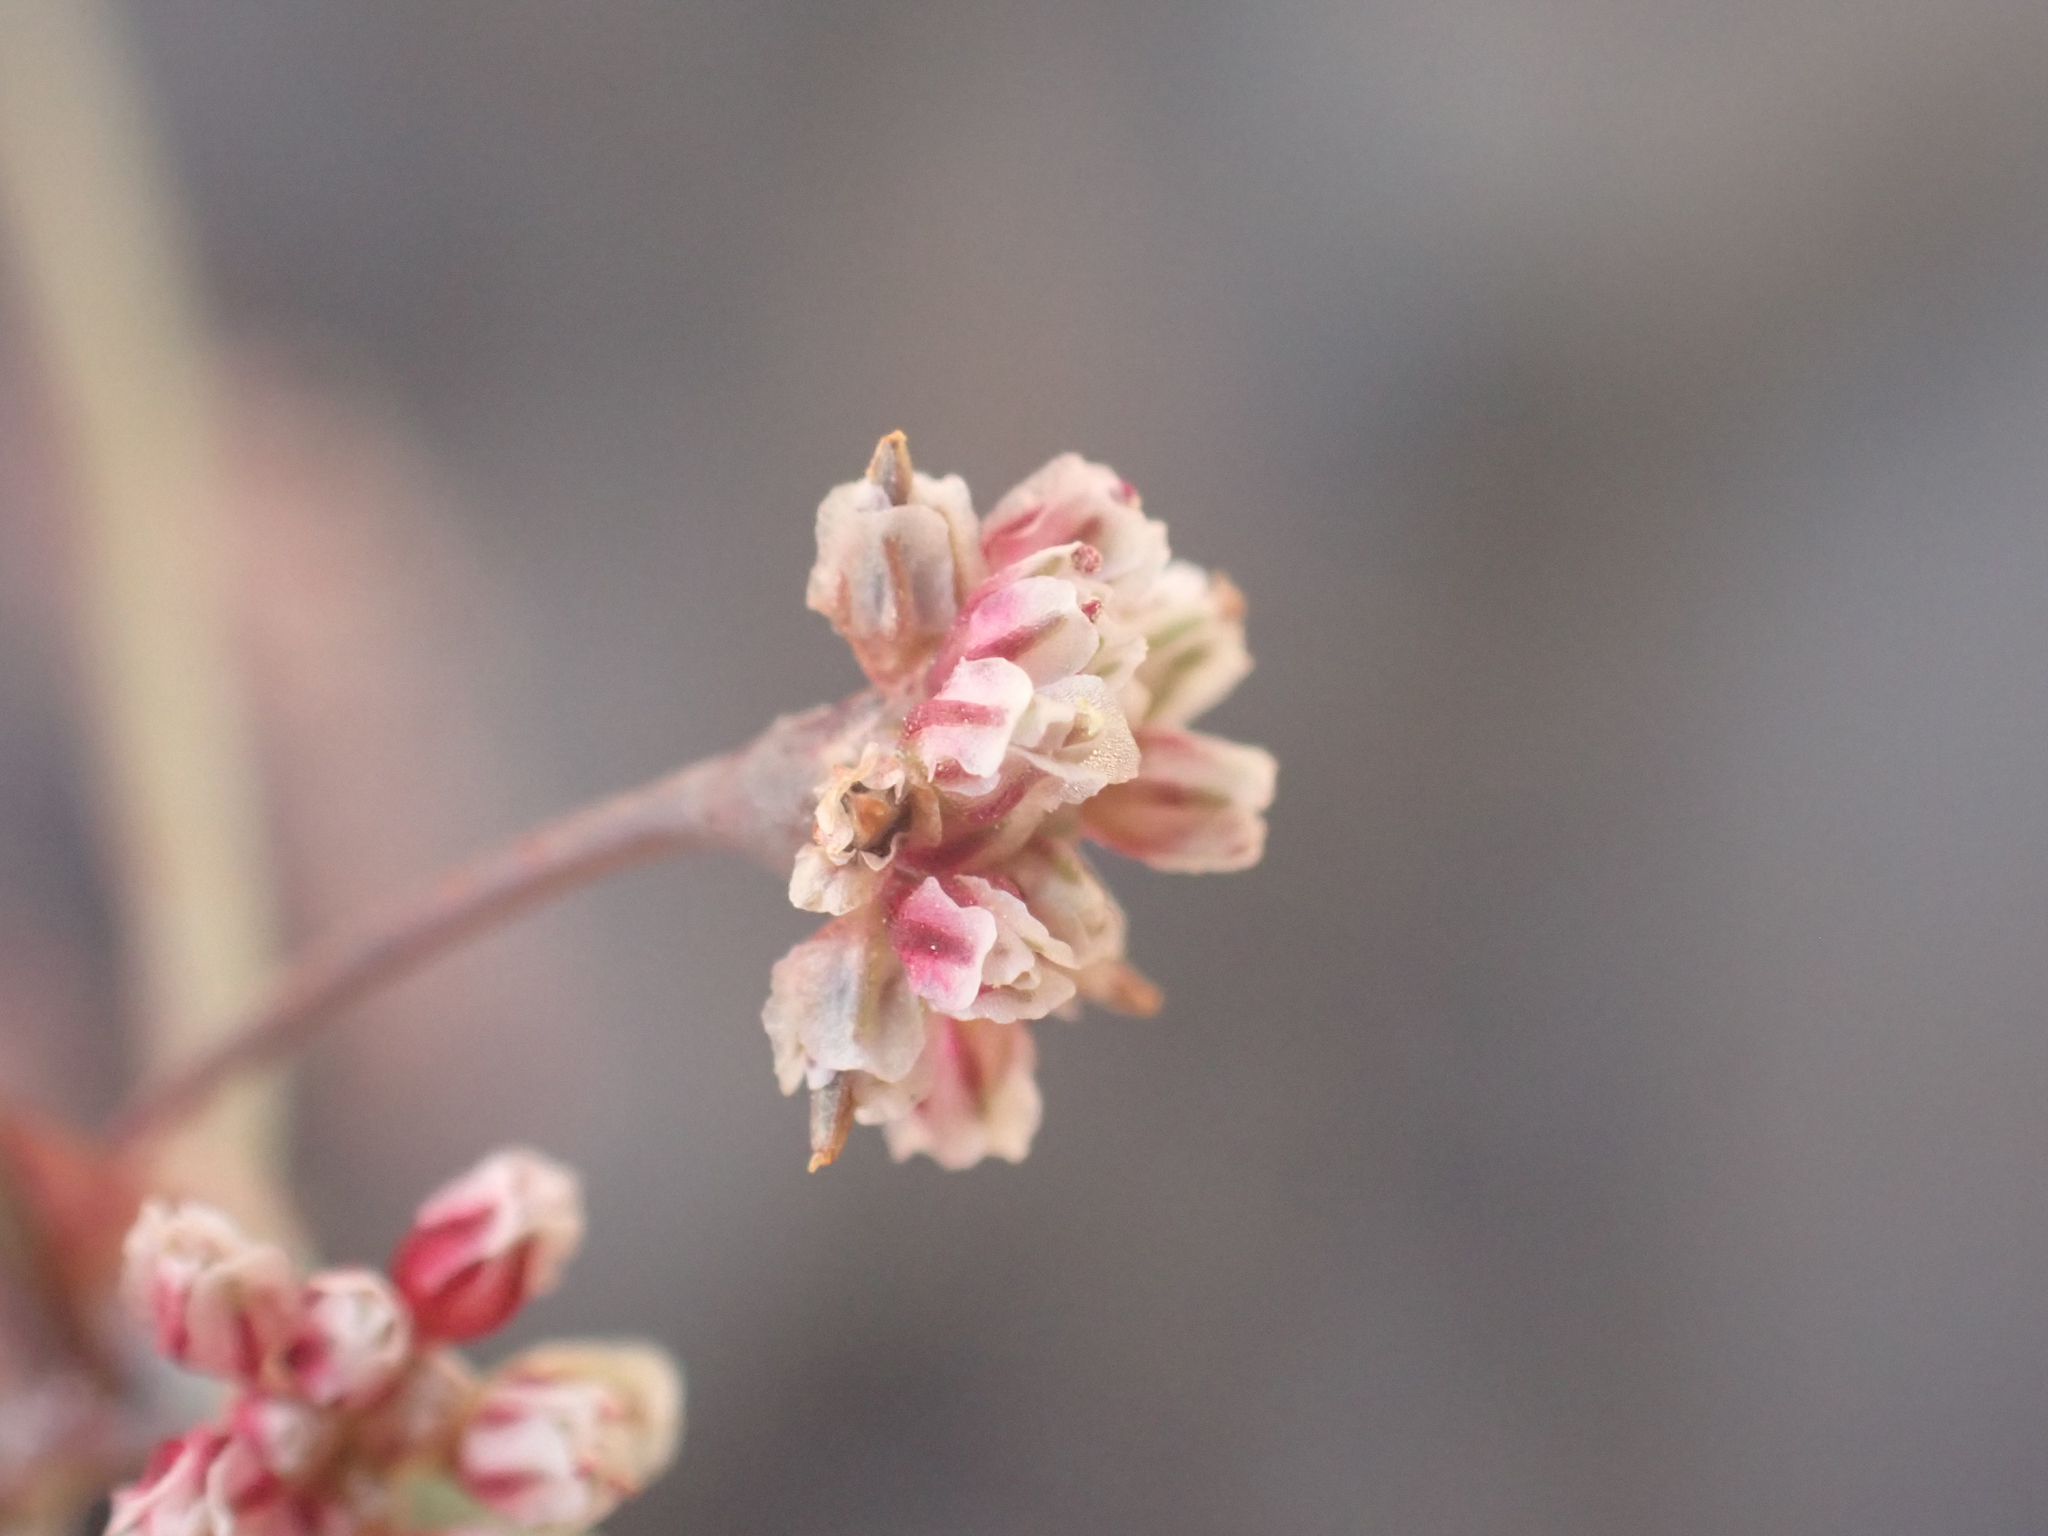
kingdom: Plantae
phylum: Tracheophyta
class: Magnoliopsida
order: Caryophyllales
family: Polygonaceae
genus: Eriogonum
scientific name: Eriogonum cernuum
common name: Nodding wild buckwheat
